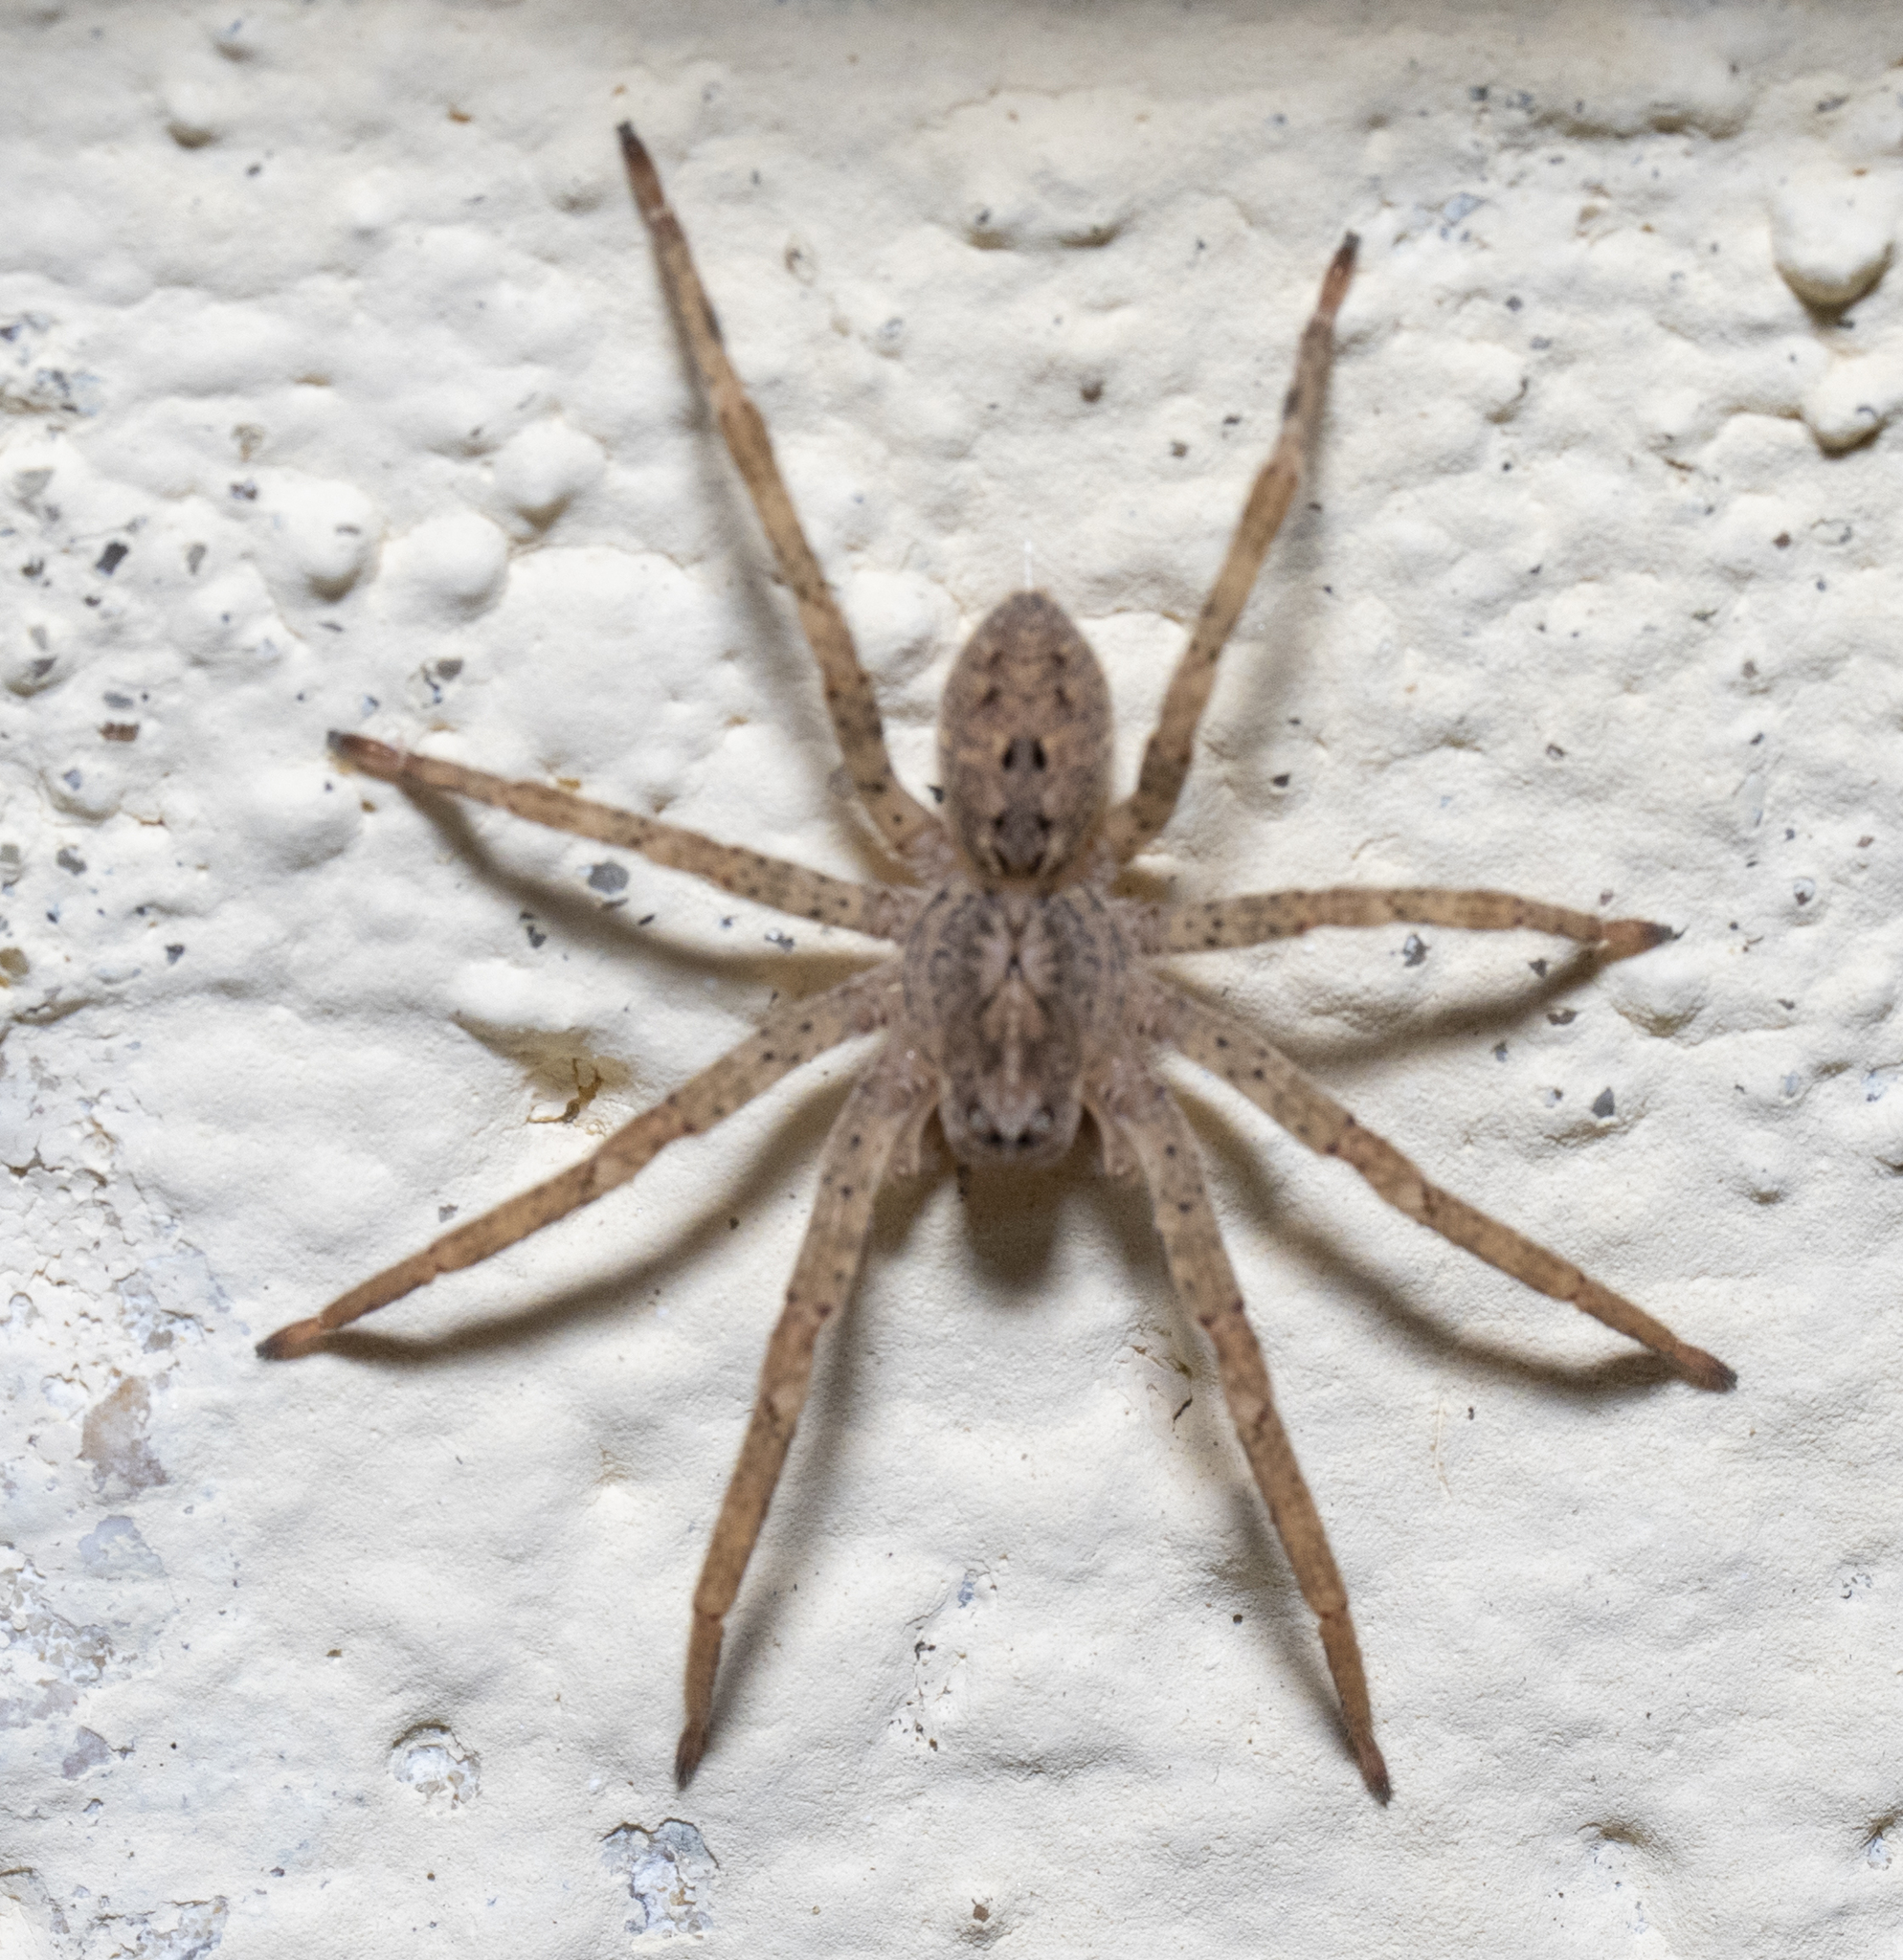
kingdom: Animalia
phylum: Arthropoda
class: Arachnida
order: Araneae
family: Zoropsidae
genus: Zoropsis
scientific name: Zoropsis spinimana
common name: Zoropsid spider
